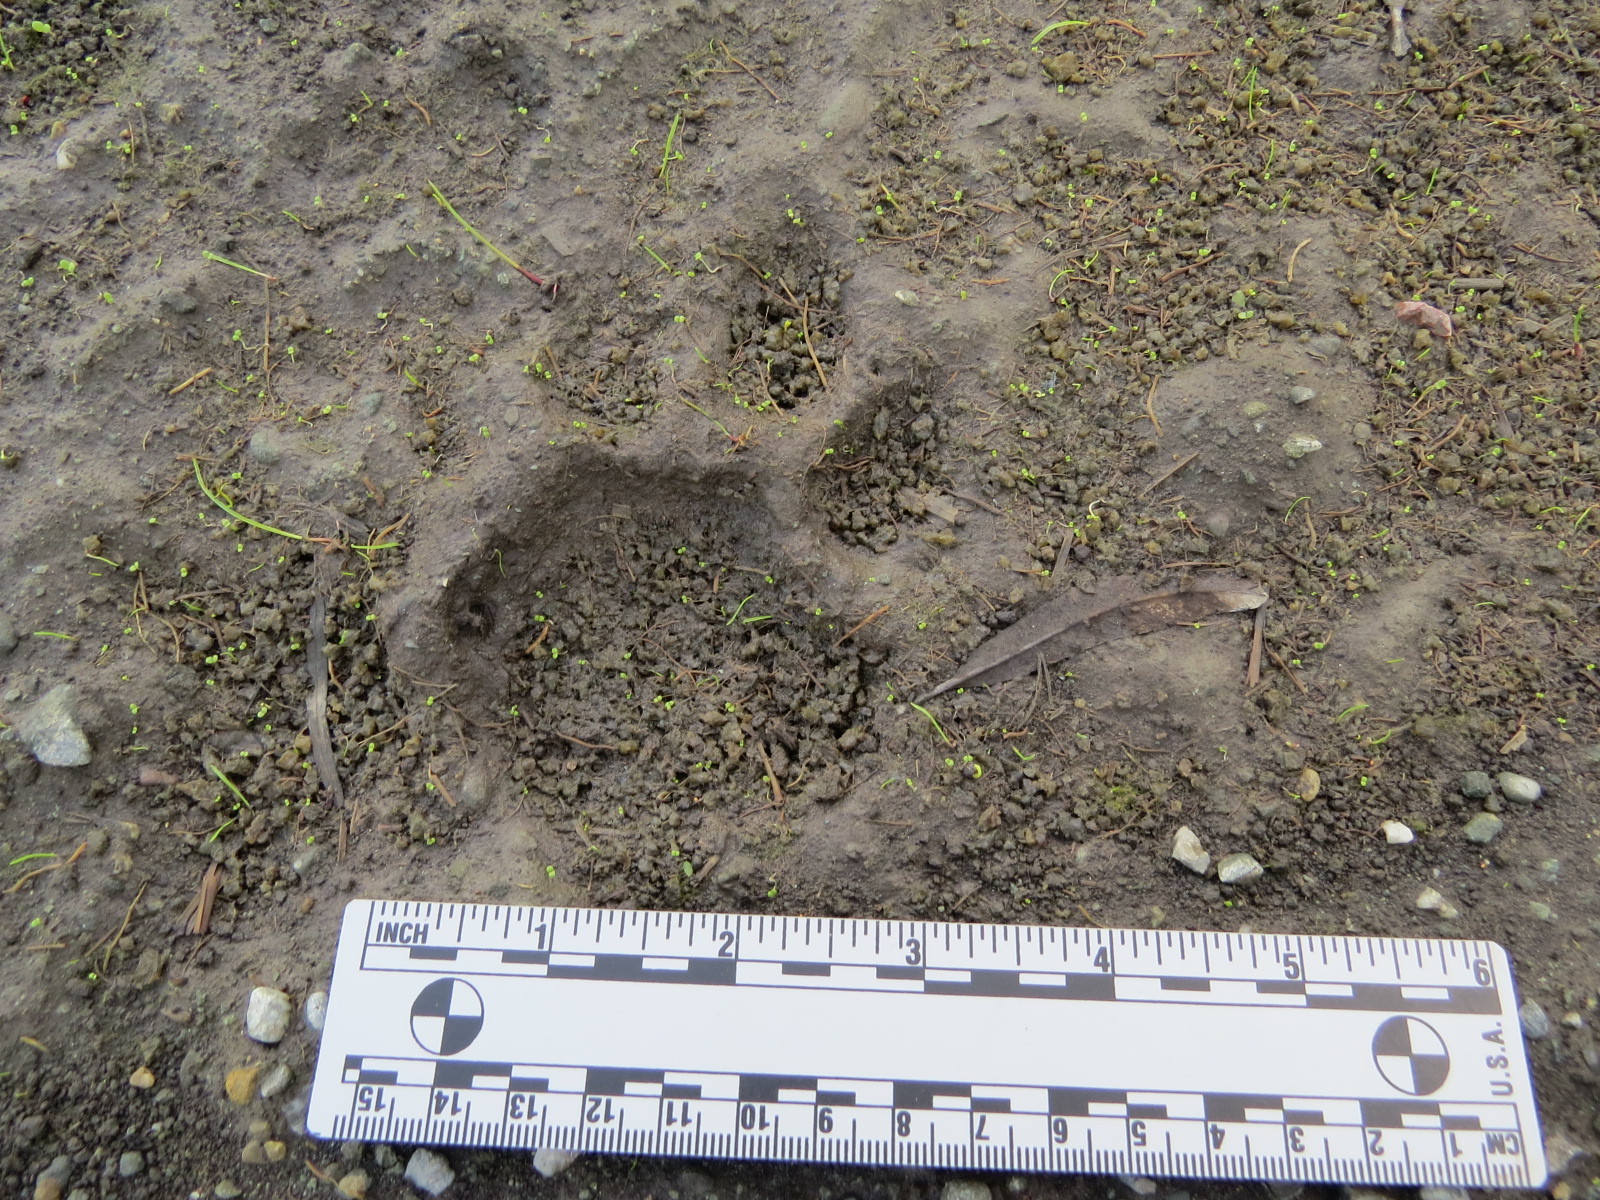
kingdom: Animalia
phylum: Chordata
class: Mammalia
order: Carnivora
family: Felidae
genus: Puma
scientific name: Puma concolor
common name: Puma
